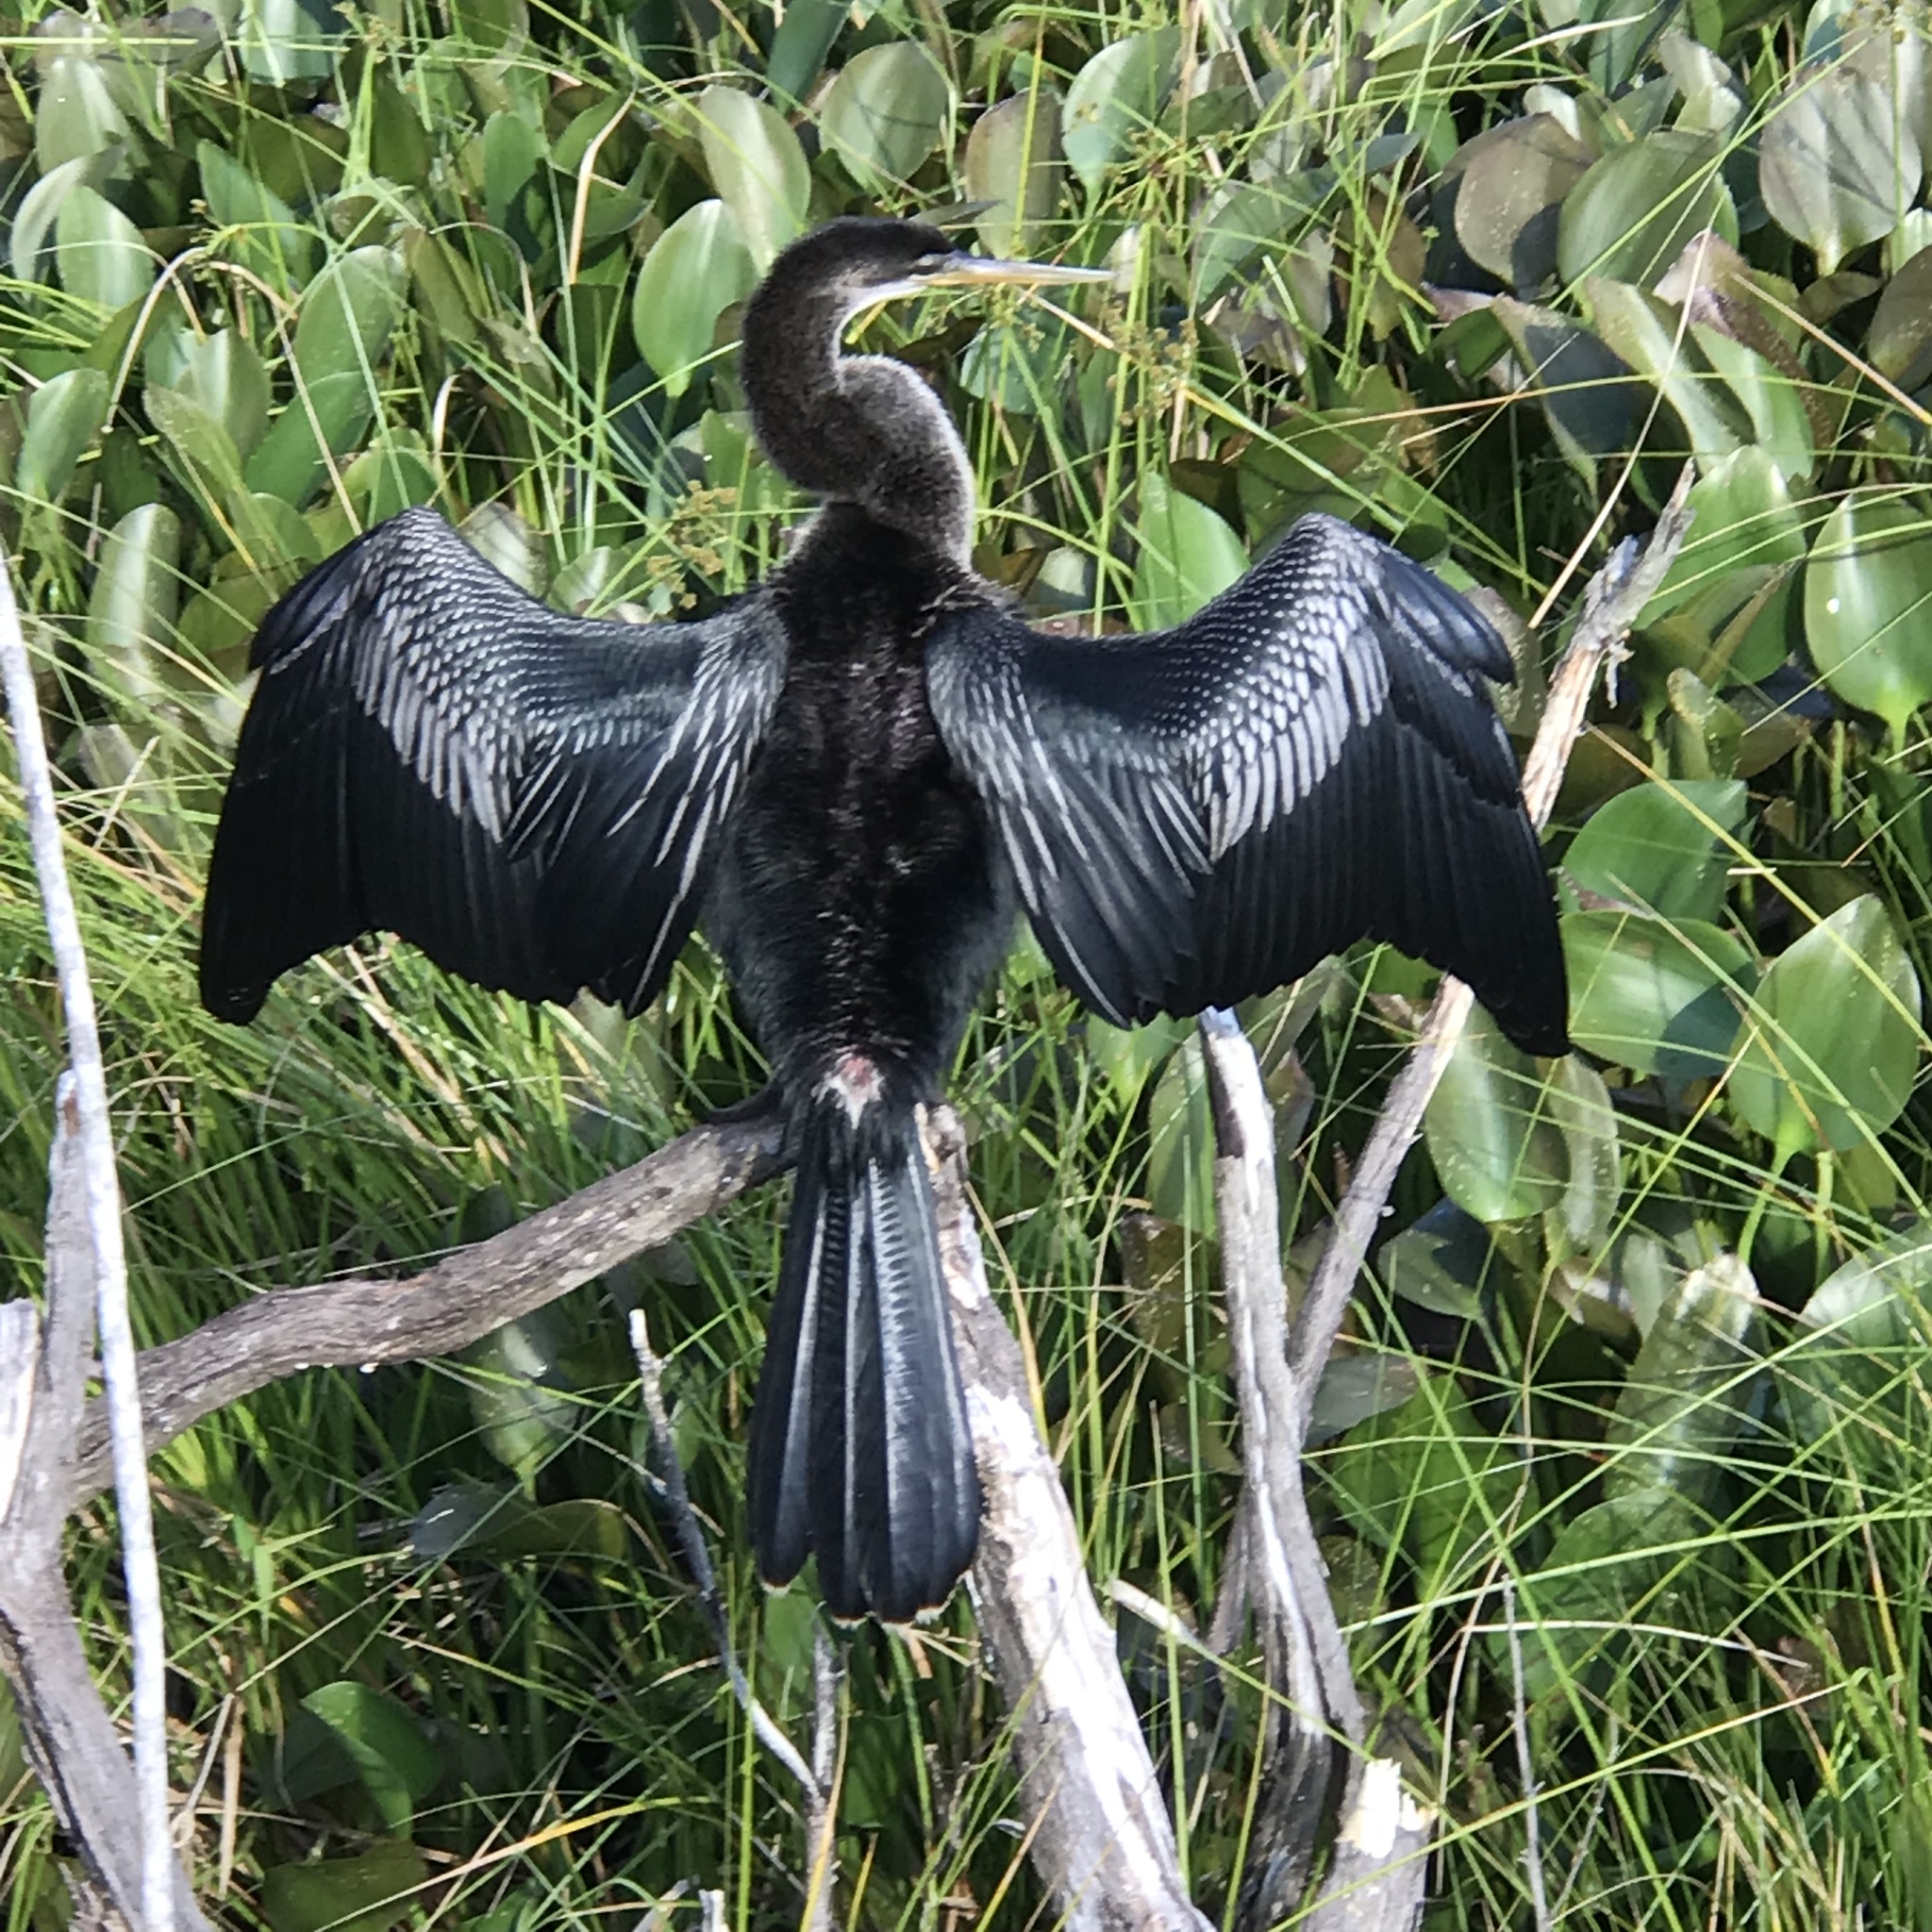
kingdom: Animalia
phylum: Chordata
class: Aves
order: Suliformes
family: Anhingidae
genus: Anhinga
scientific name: Anhinga anhinga
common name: Anhinga
